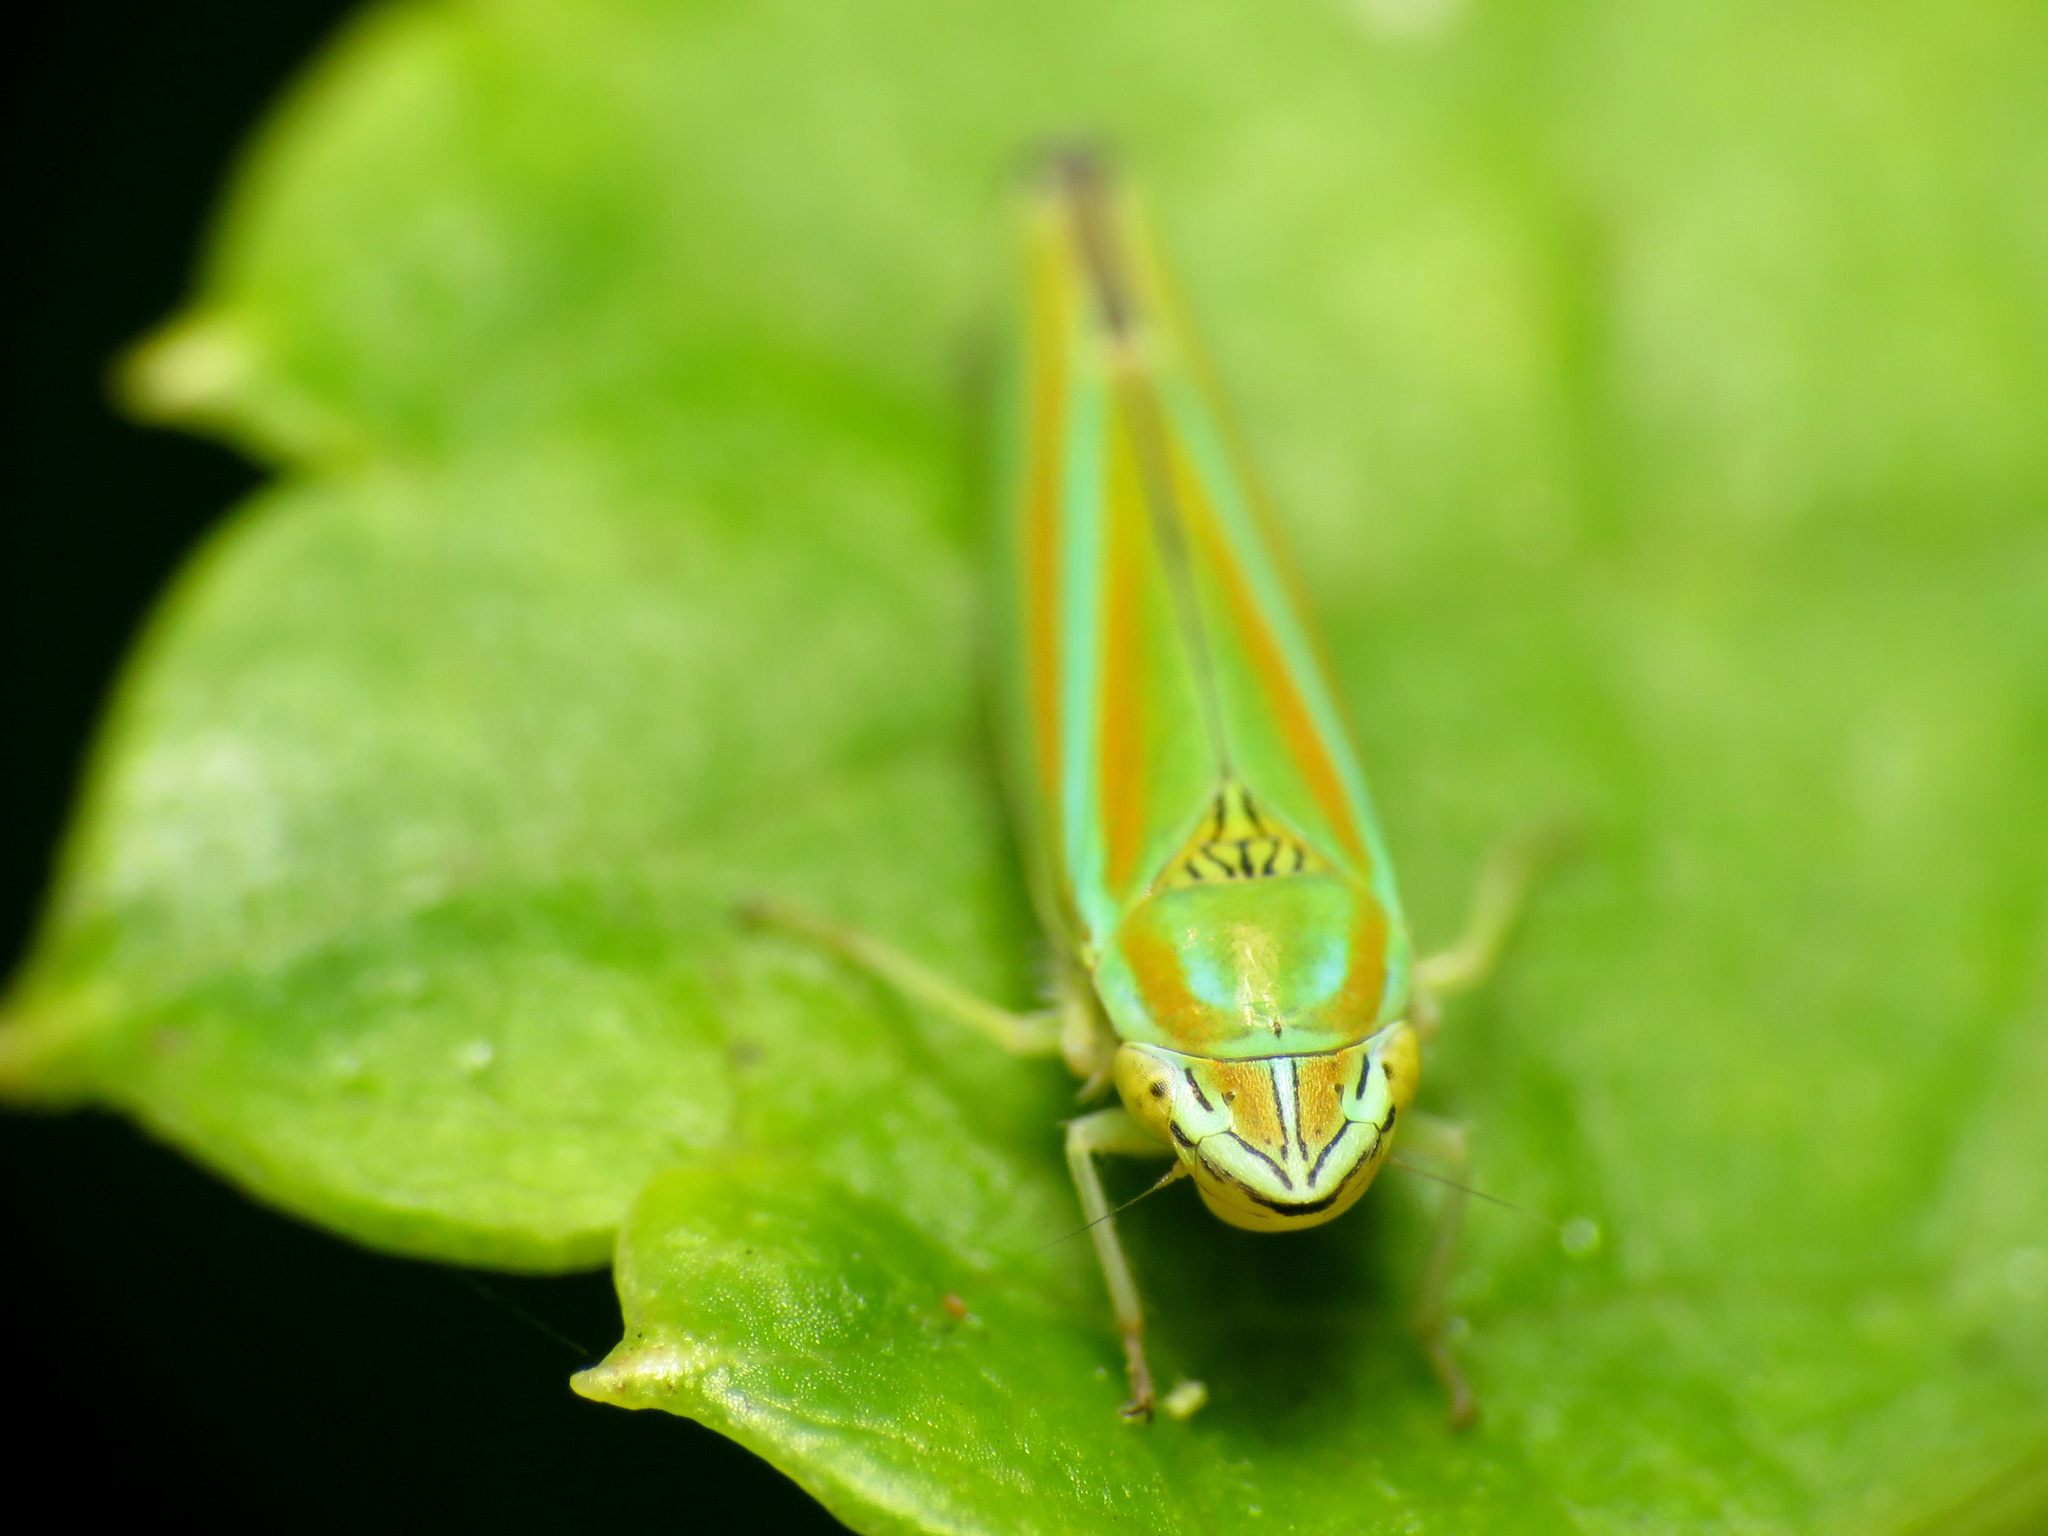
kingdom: Animalia
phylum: Arthropoda
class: Insecta
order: Hemiptera
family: Cicadellidae
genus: Graphocephala
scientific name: Graphocephala versuta
